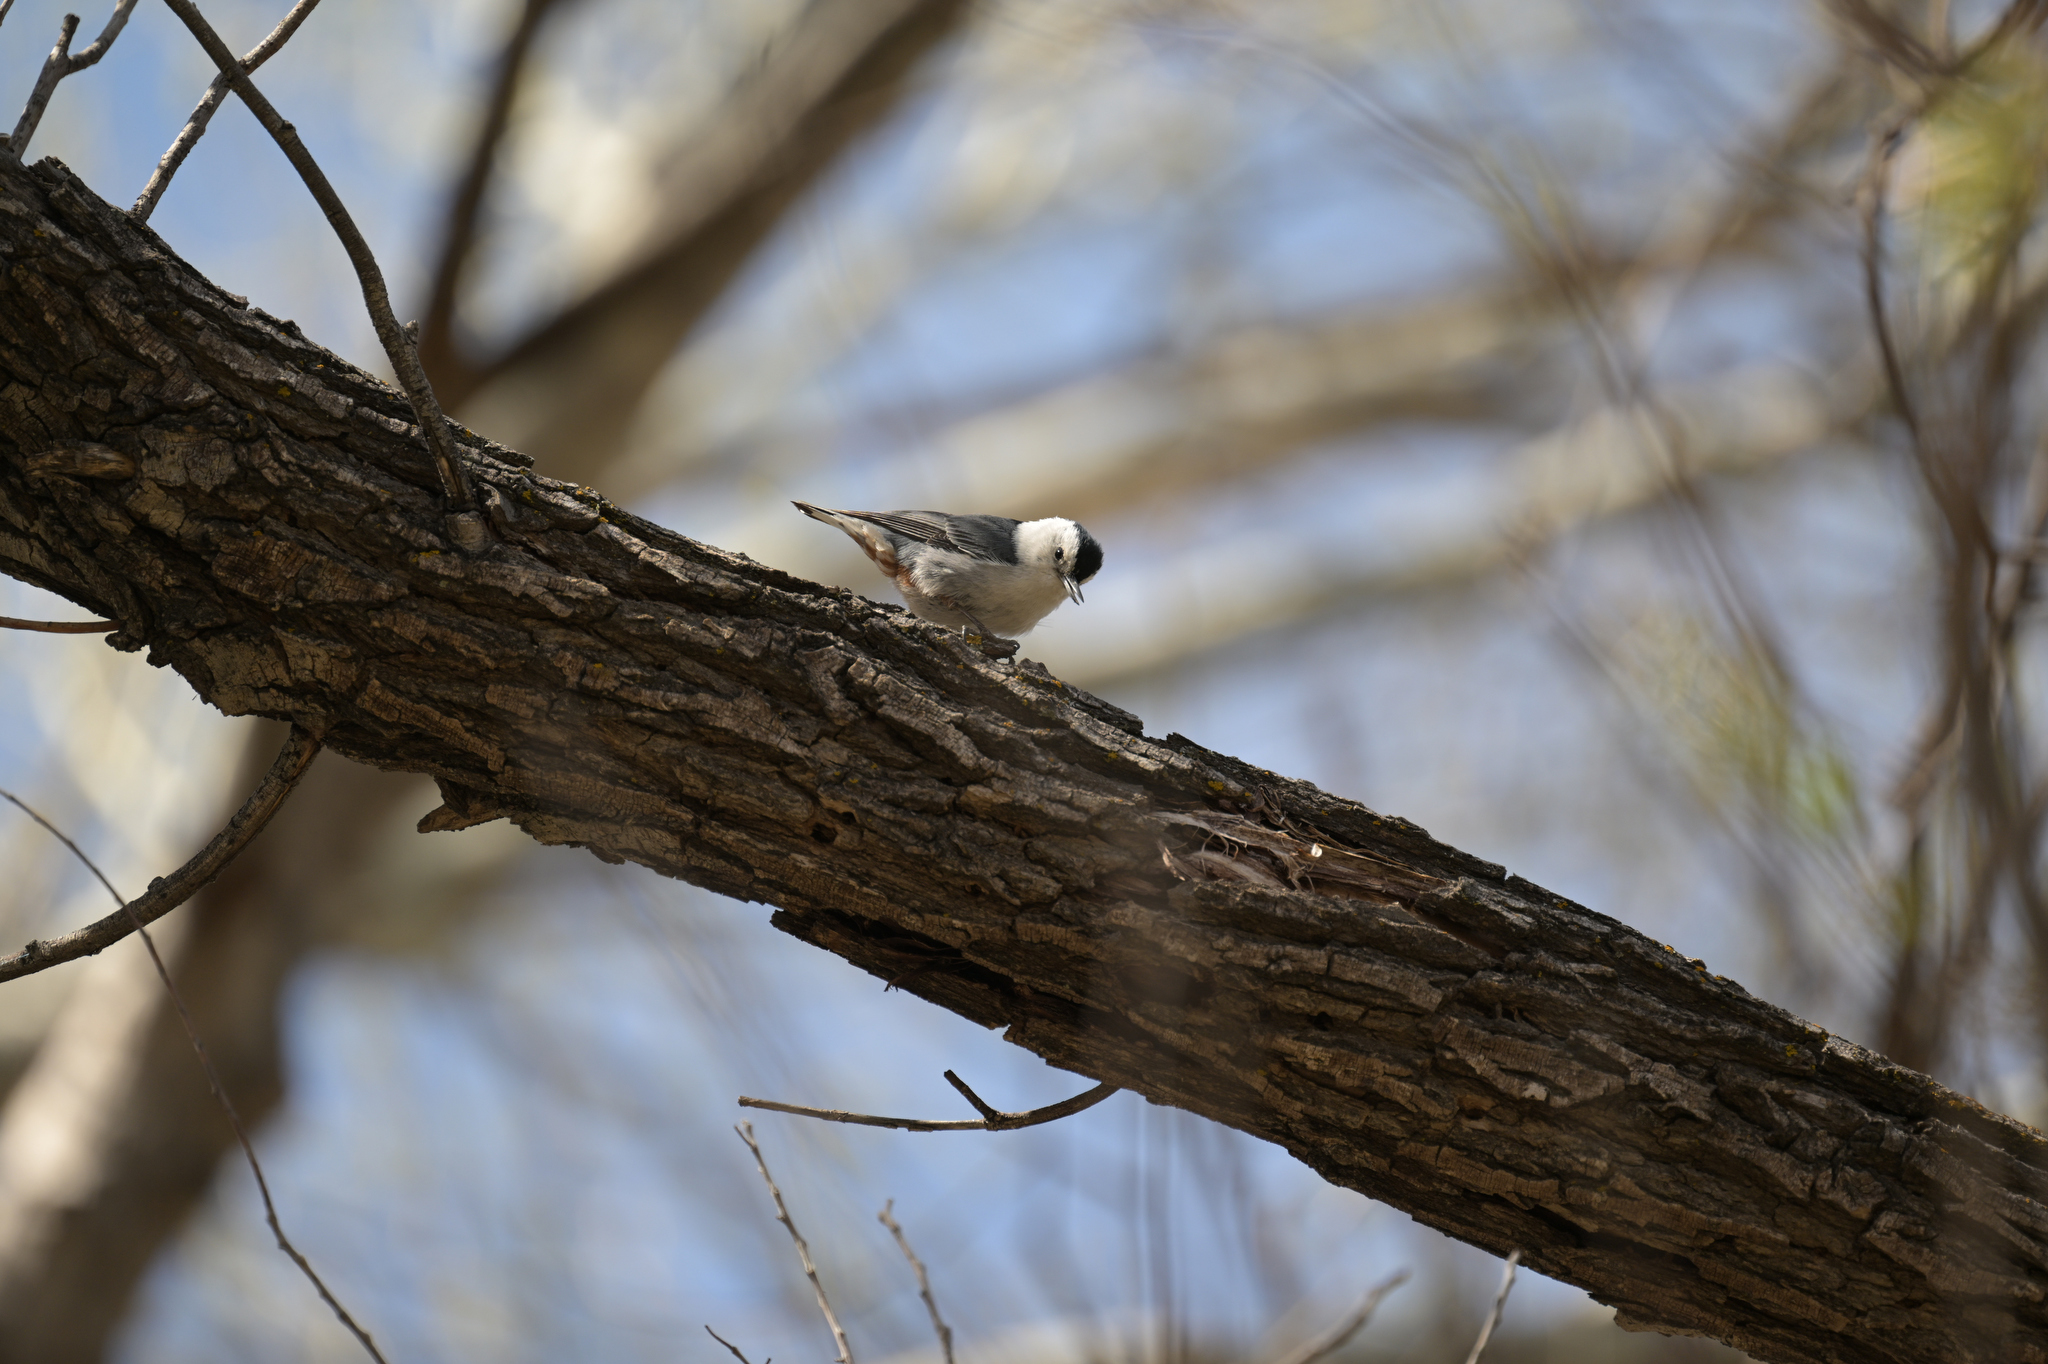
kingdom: Animalia
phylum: Chordata
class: Aves
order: Passeriformes
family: Sittidae
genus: Sitta
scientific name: Sitta carolinensis
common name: White-breasted nuthatch
